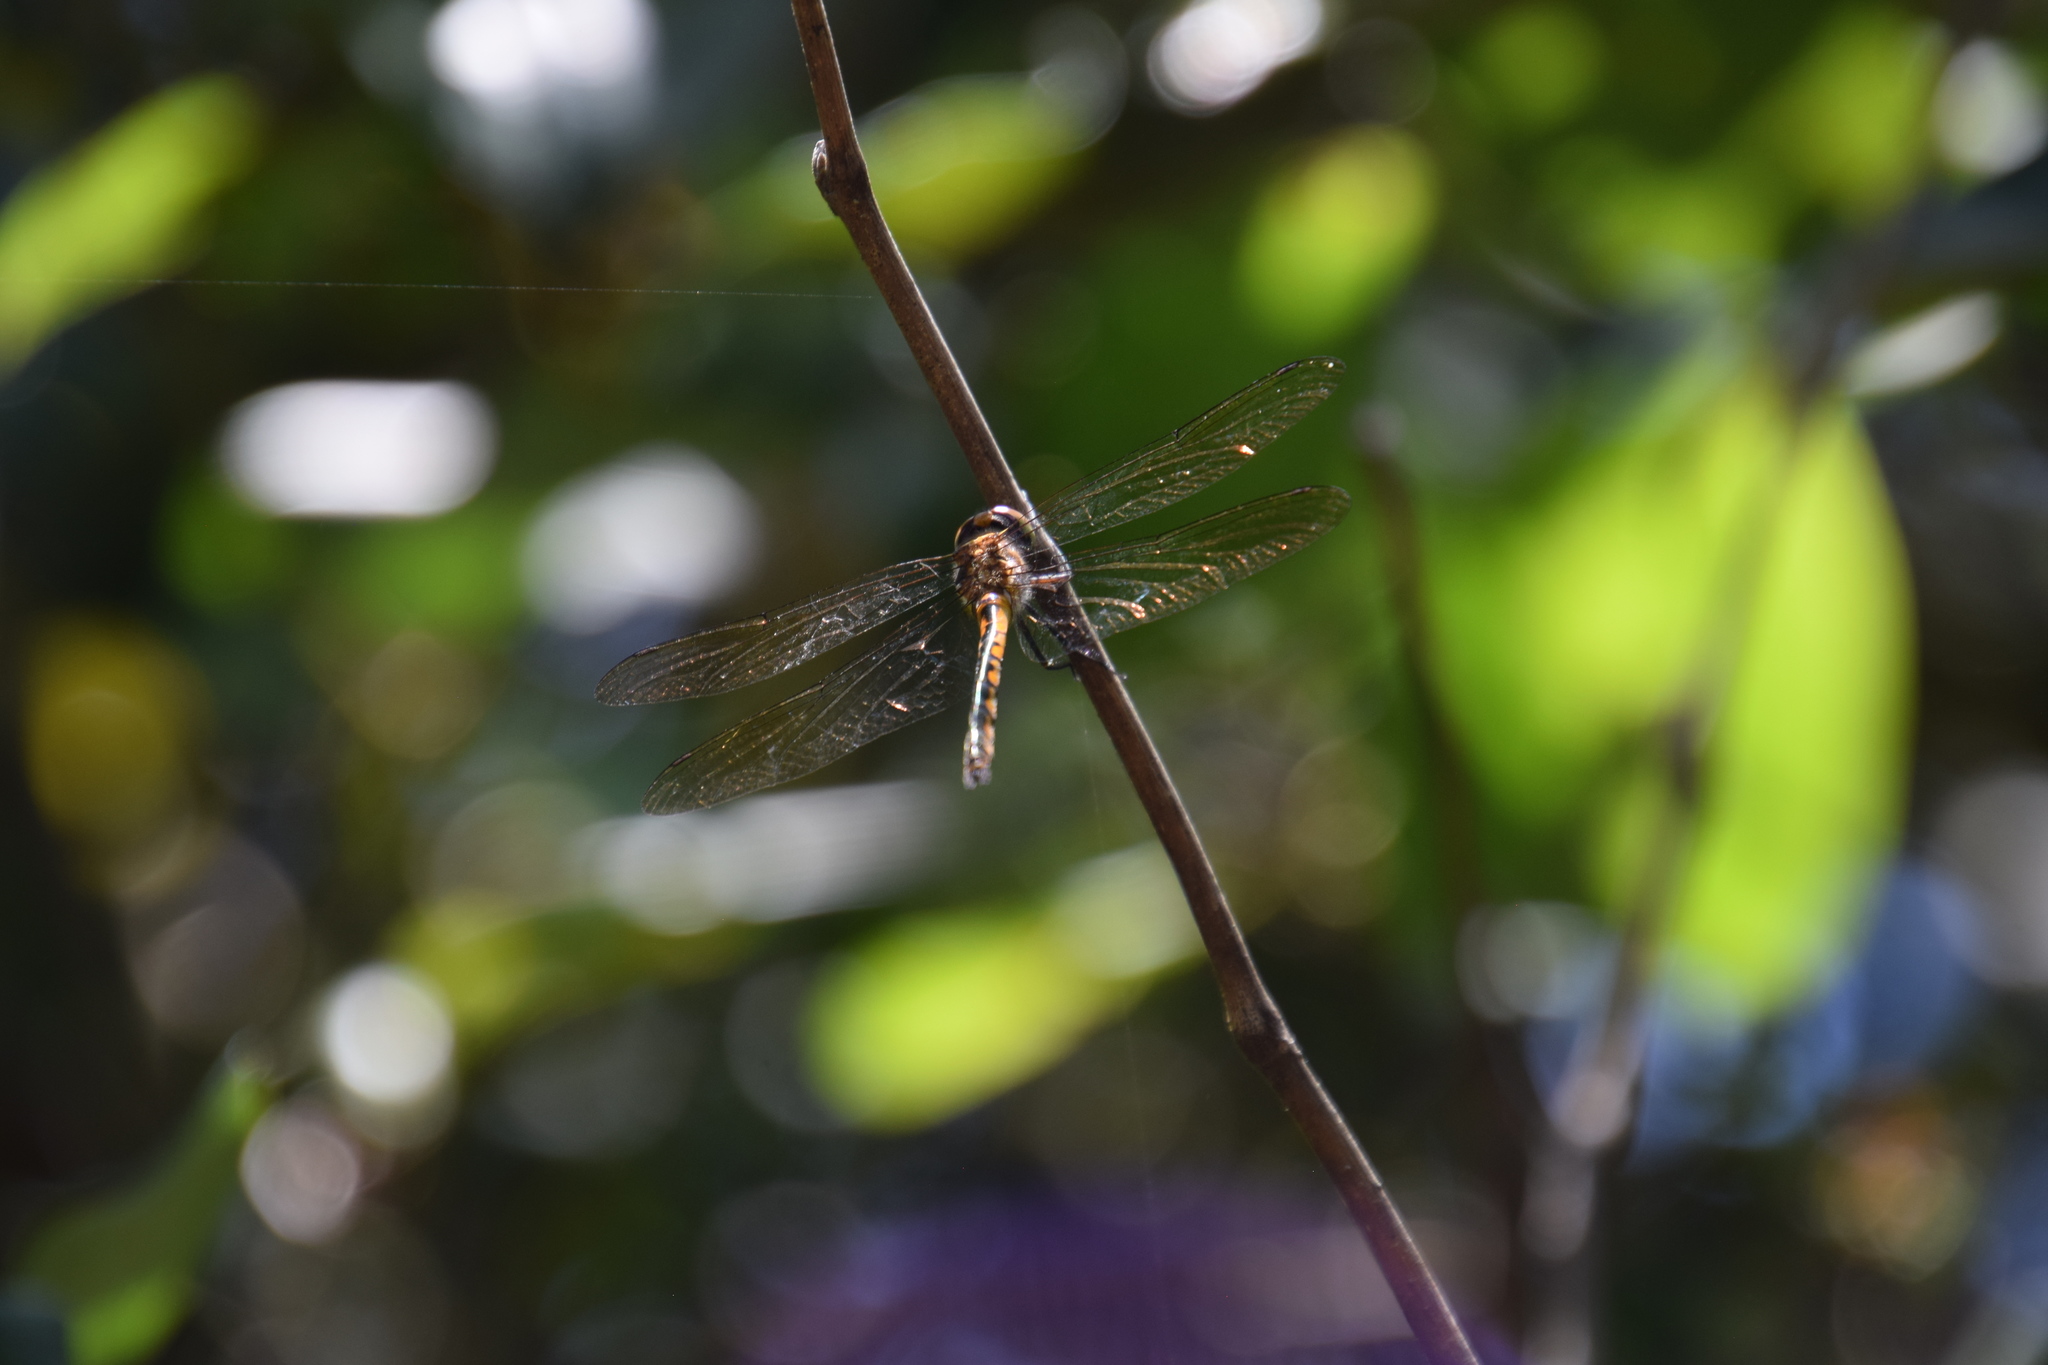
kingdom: Animalia
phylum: Arthropoda
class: Insecta
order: Odonata
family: Corduliidae
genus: Hemicordulia
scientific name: Hemicordulia australiae
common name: Sentry dragonfly
